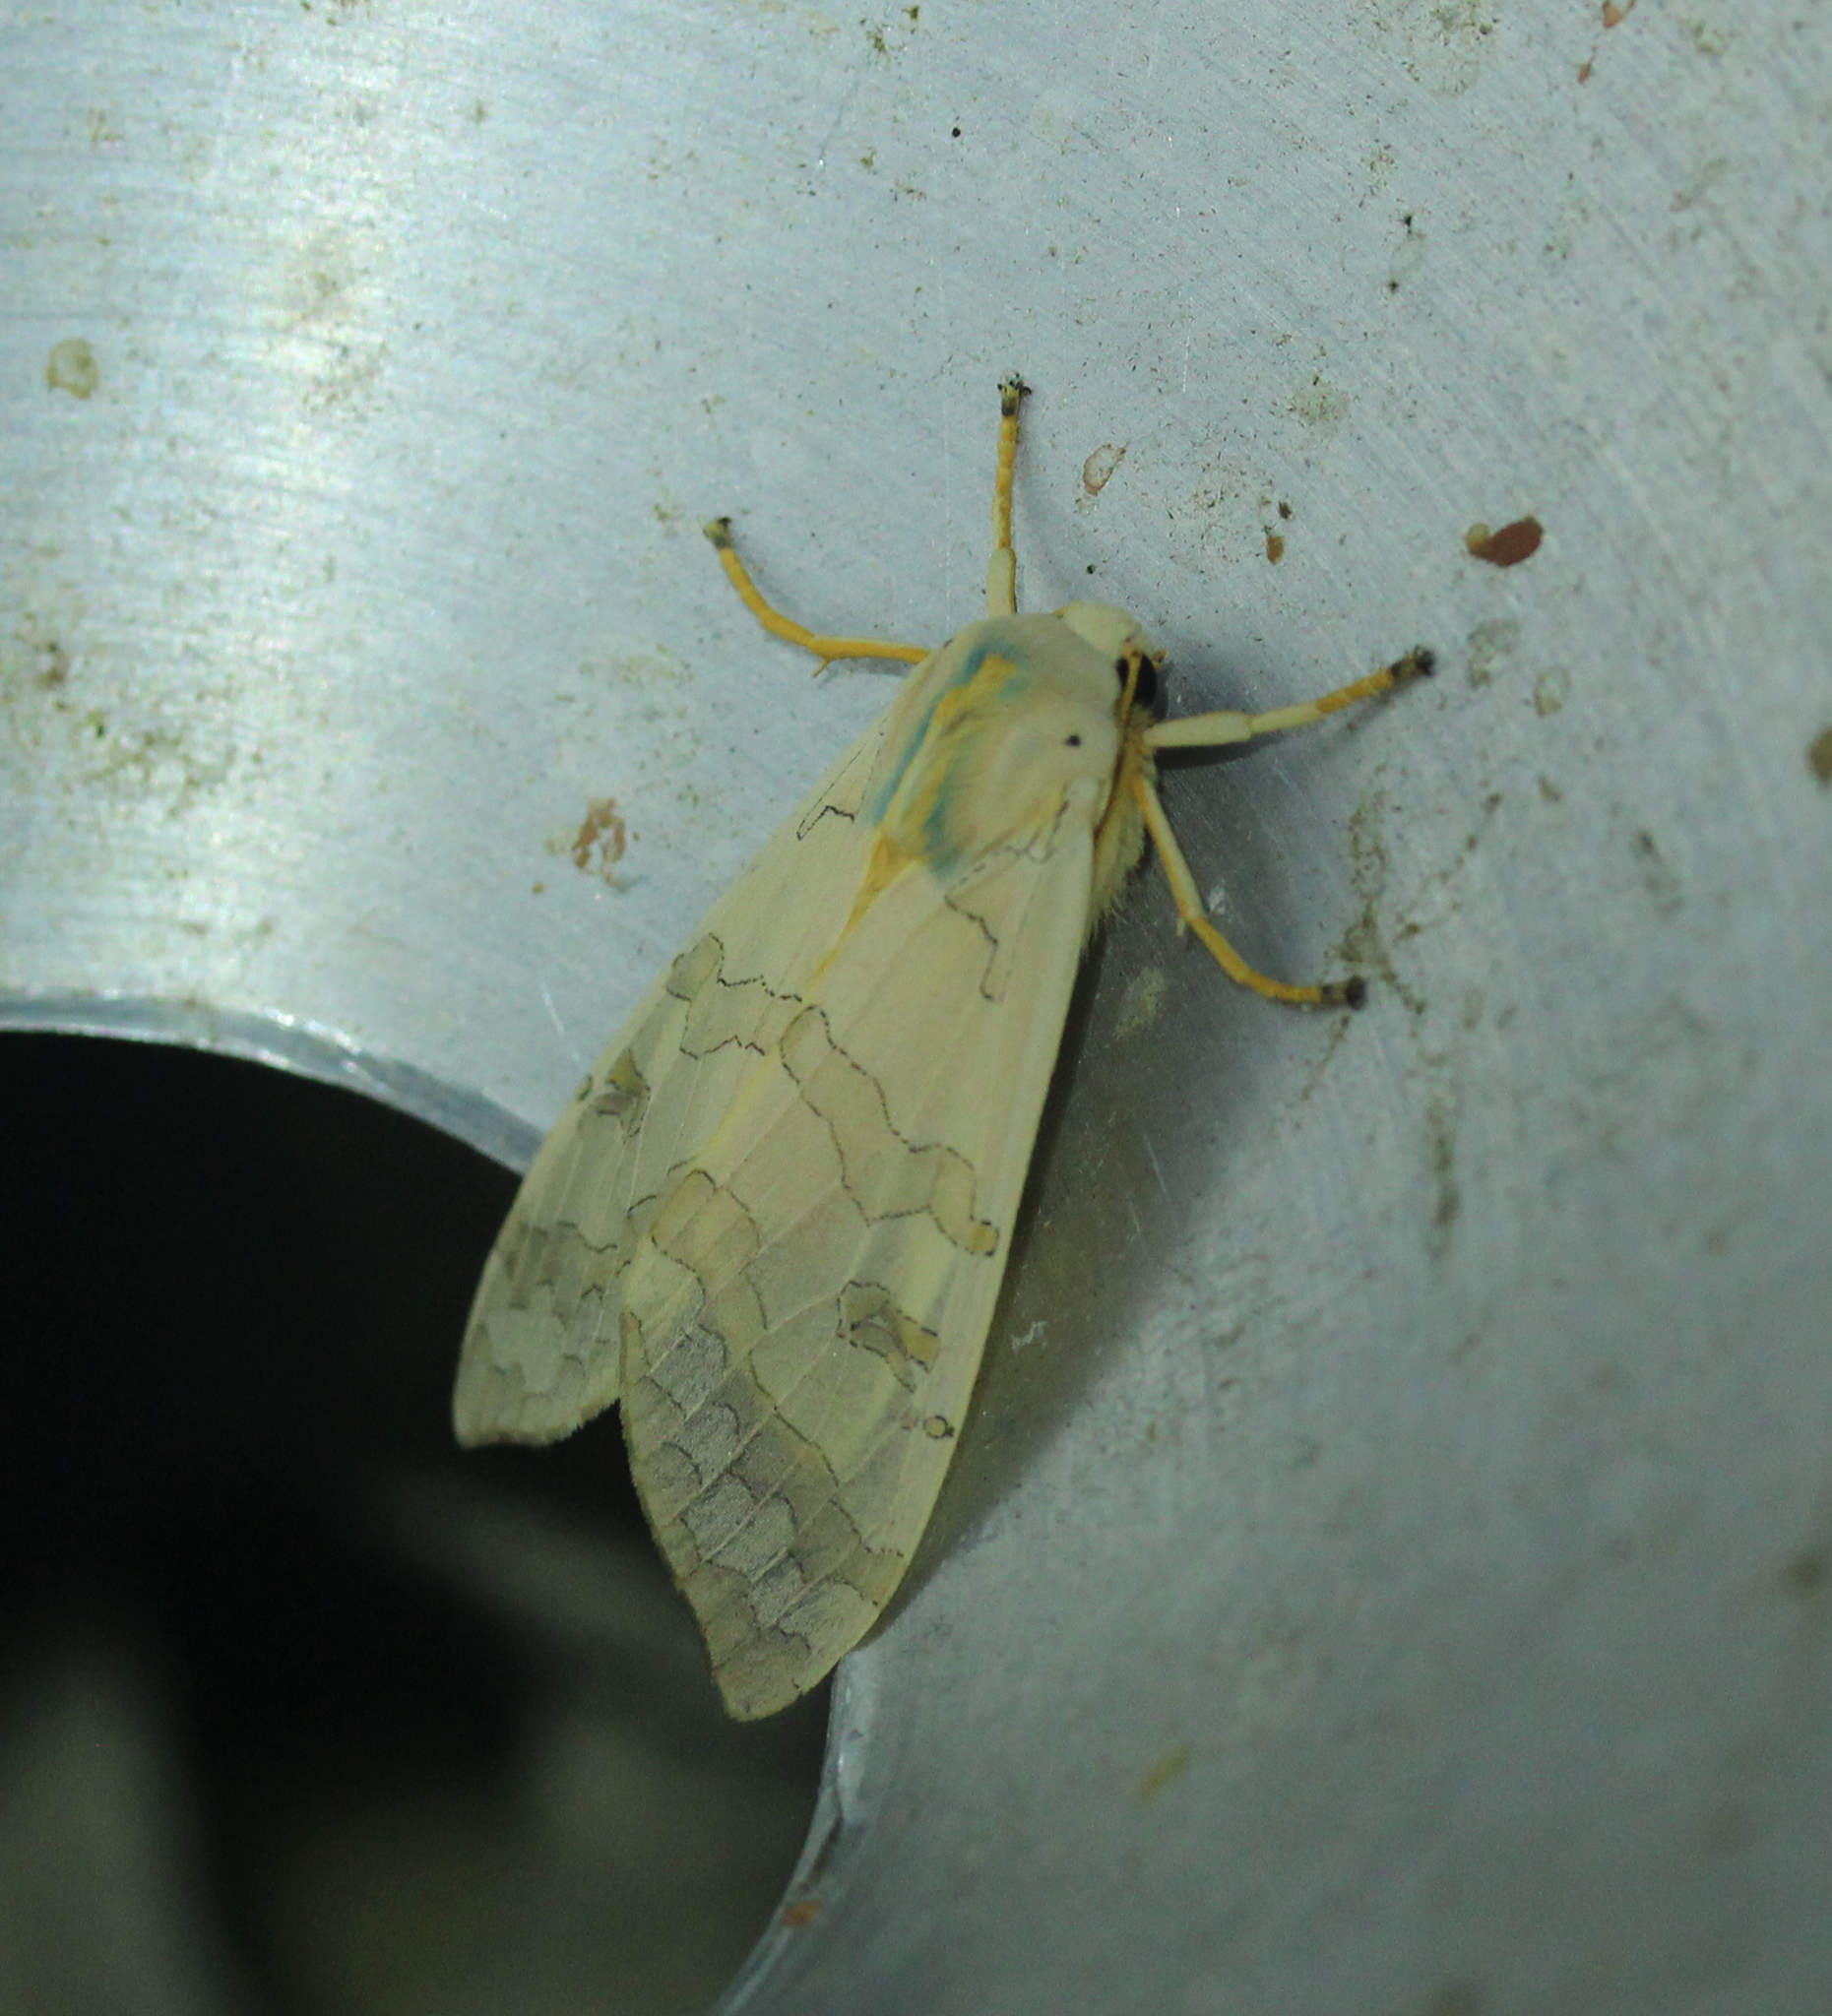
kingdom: Animalia
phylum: Arthropoda
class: Insecta
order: Lepidoptera
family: Erebidae
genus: Halysidota
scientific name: Halysidota
